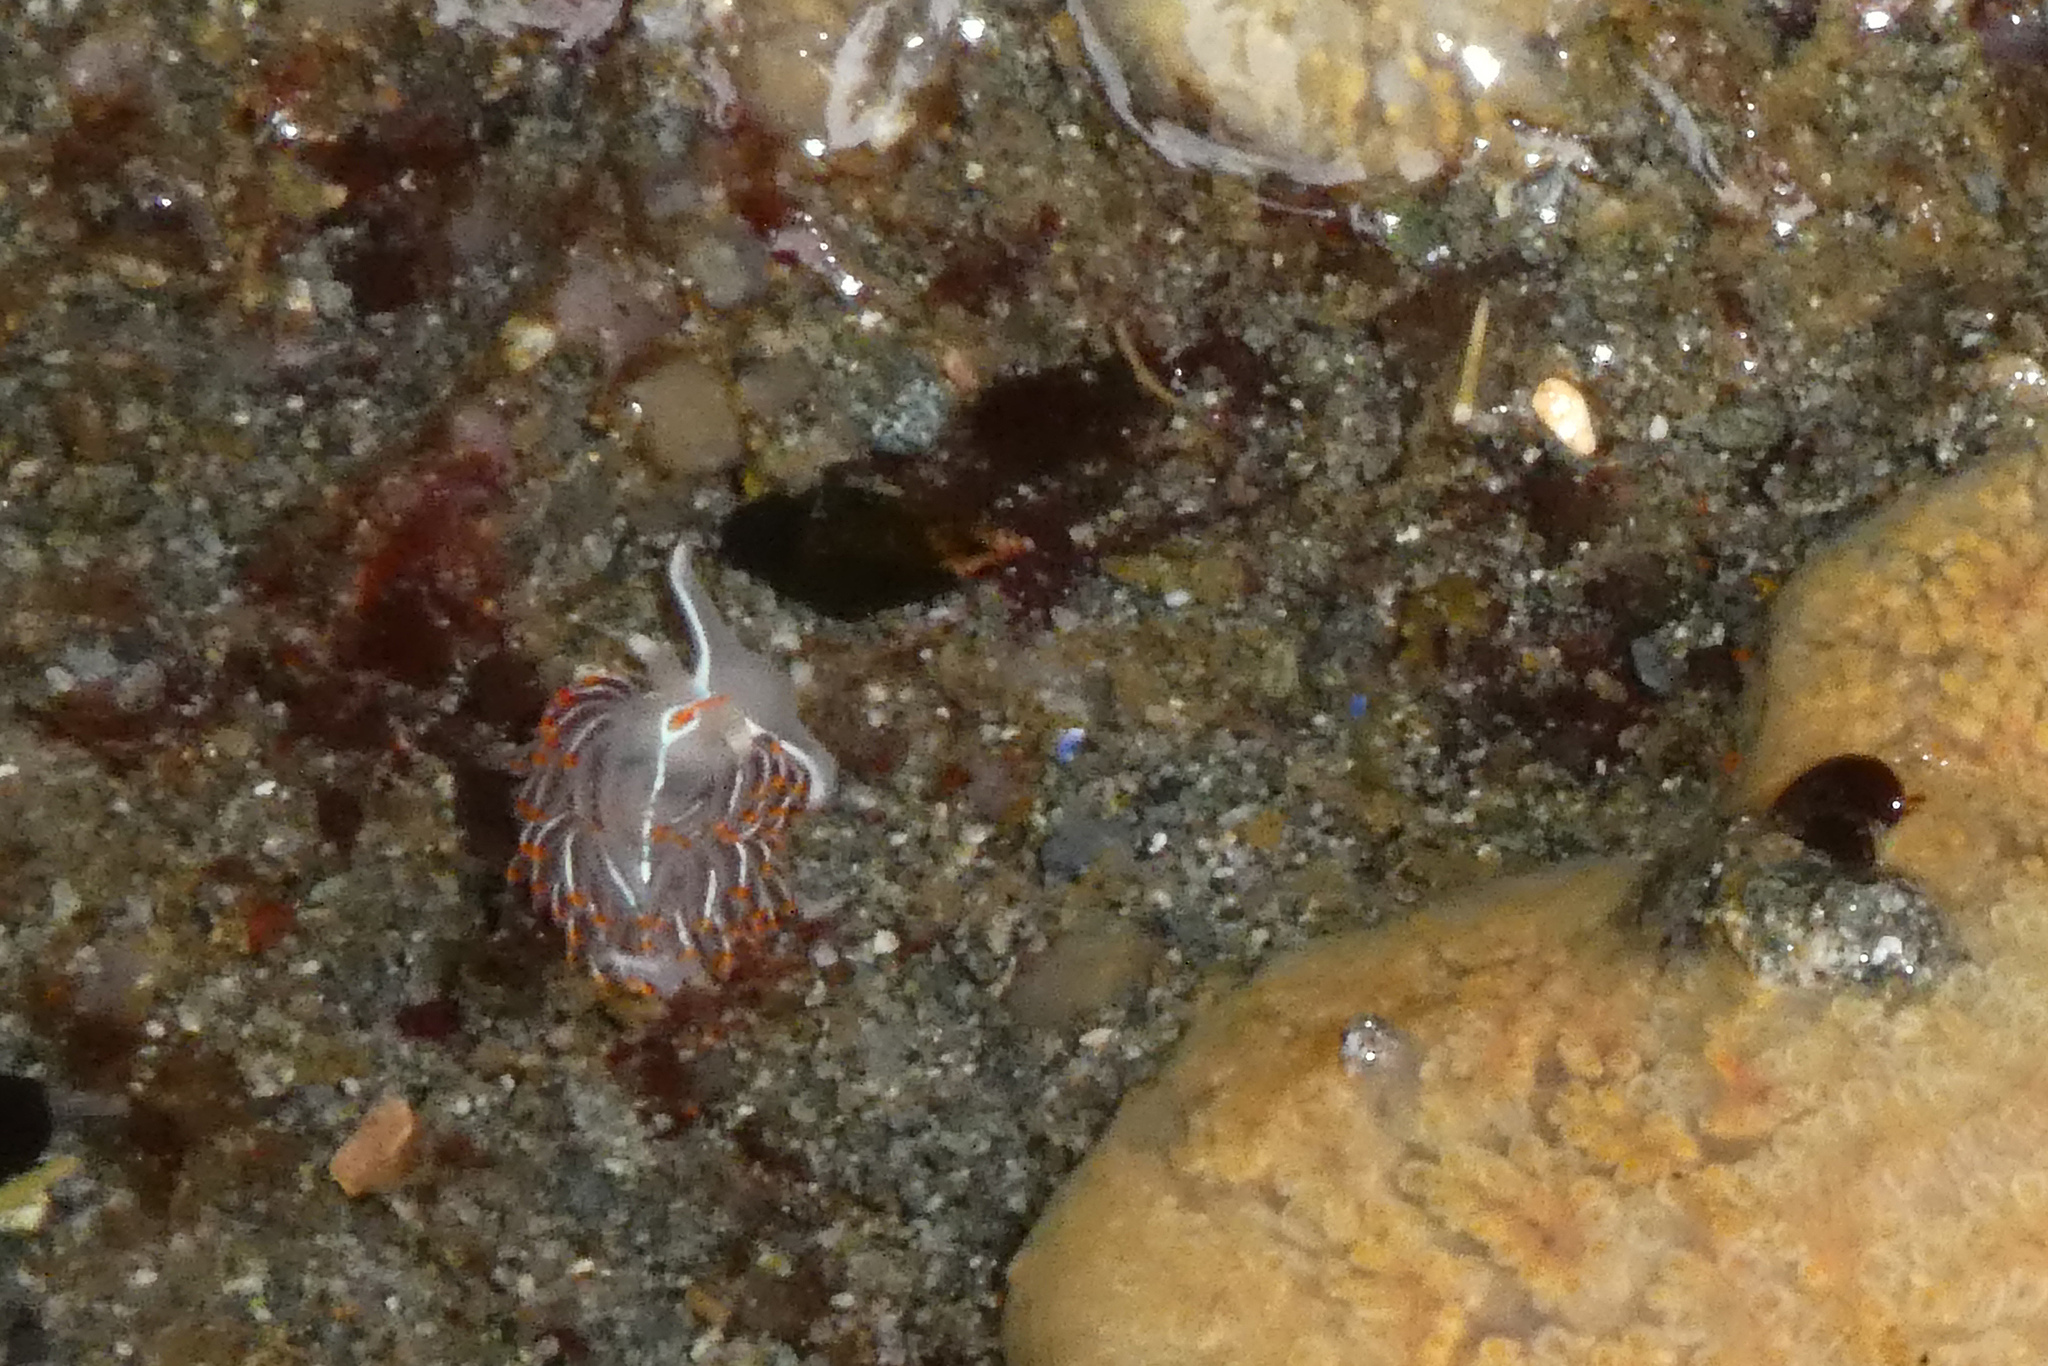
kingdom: Animalia
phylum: Mollusca
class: Gastropoda
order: Nudibranchia
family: Myrrhinidae
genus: Hermissenda
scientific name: Hermissenda crassicornis
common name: Hermissenda
